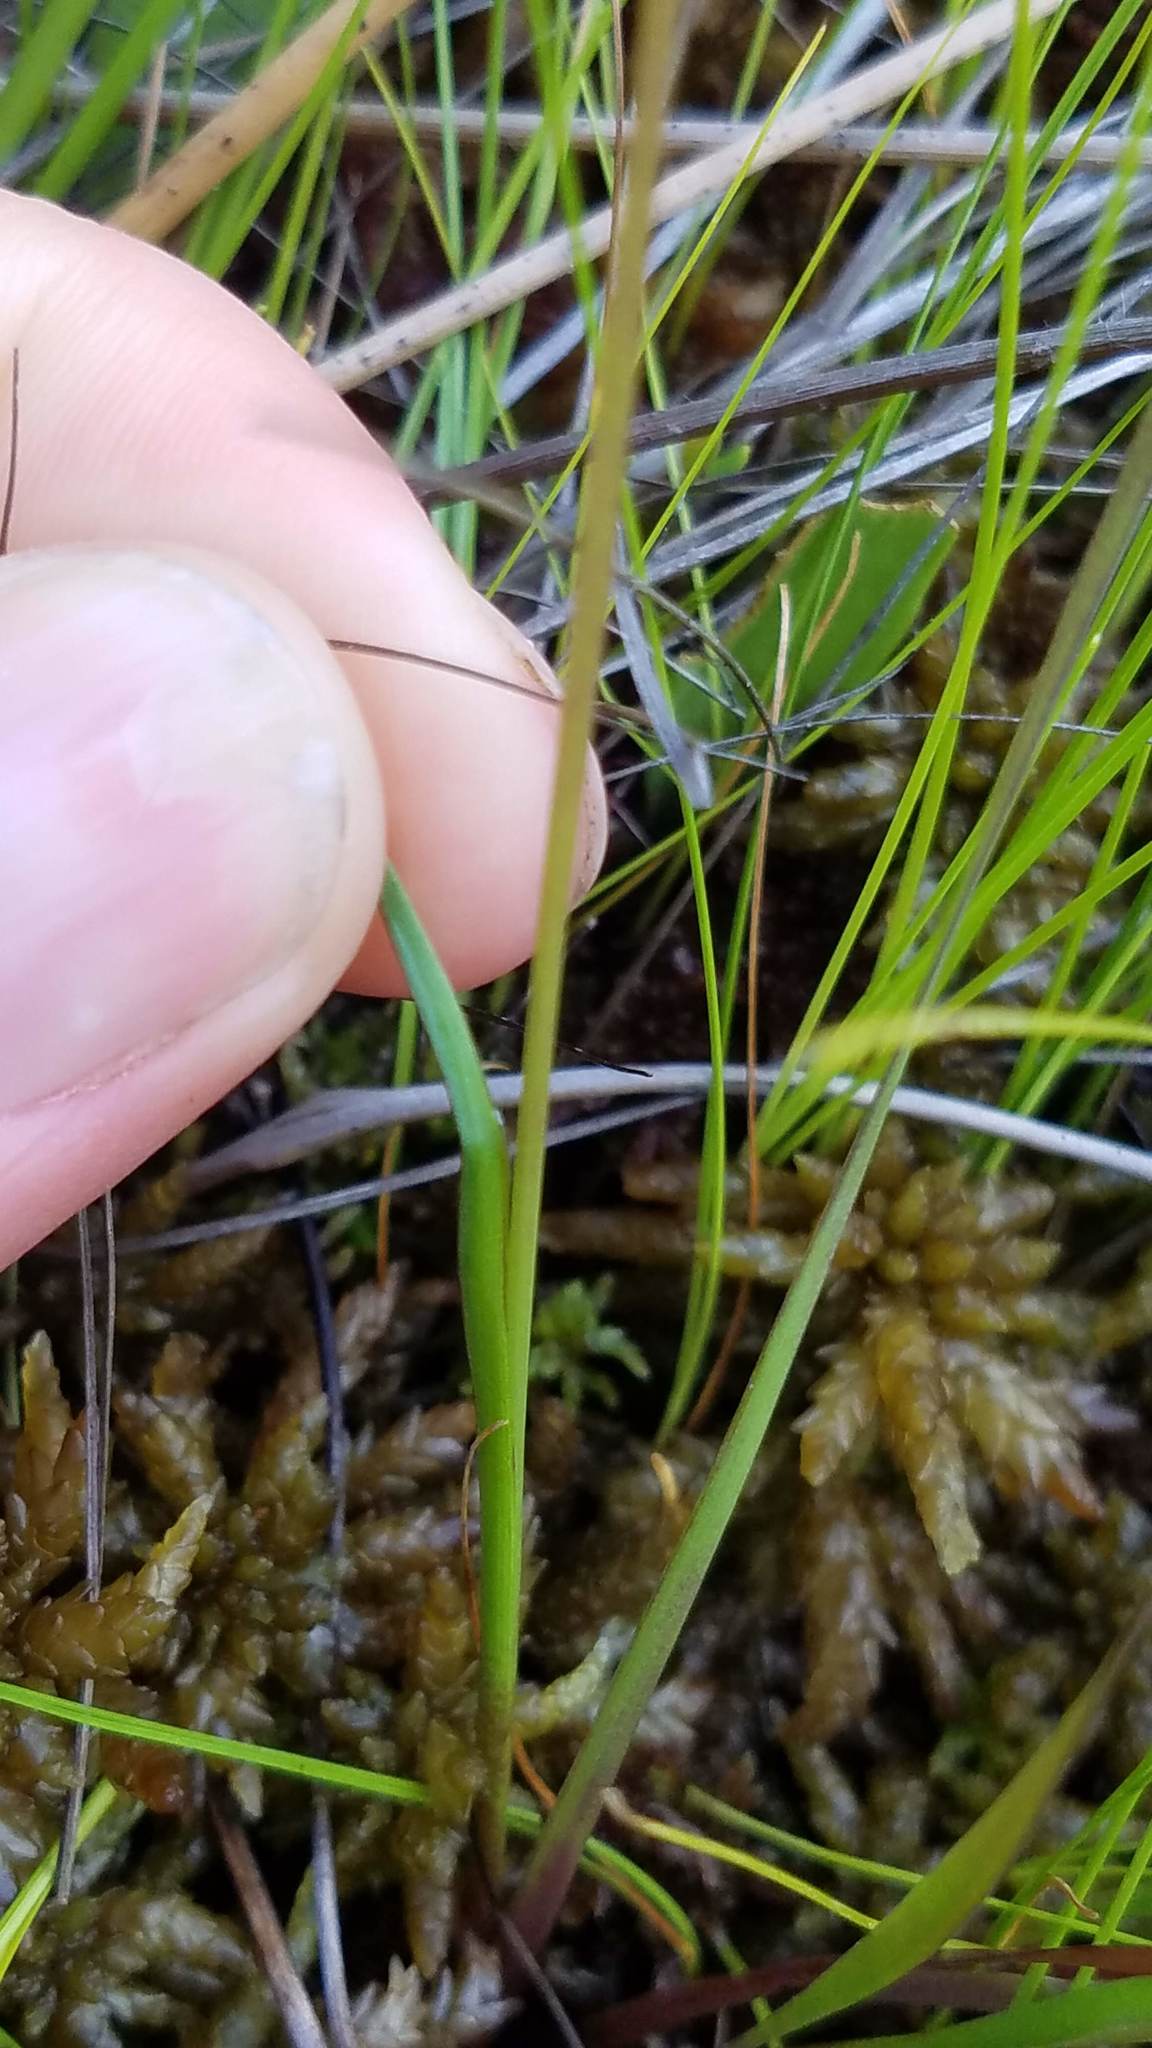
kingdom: Plantae
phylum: Tracheophyta
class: Liliopsida
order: Poales
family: Xyridaceae
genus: Xyris
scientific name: Xyris montana
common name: Northern yellow-eyed-grass
